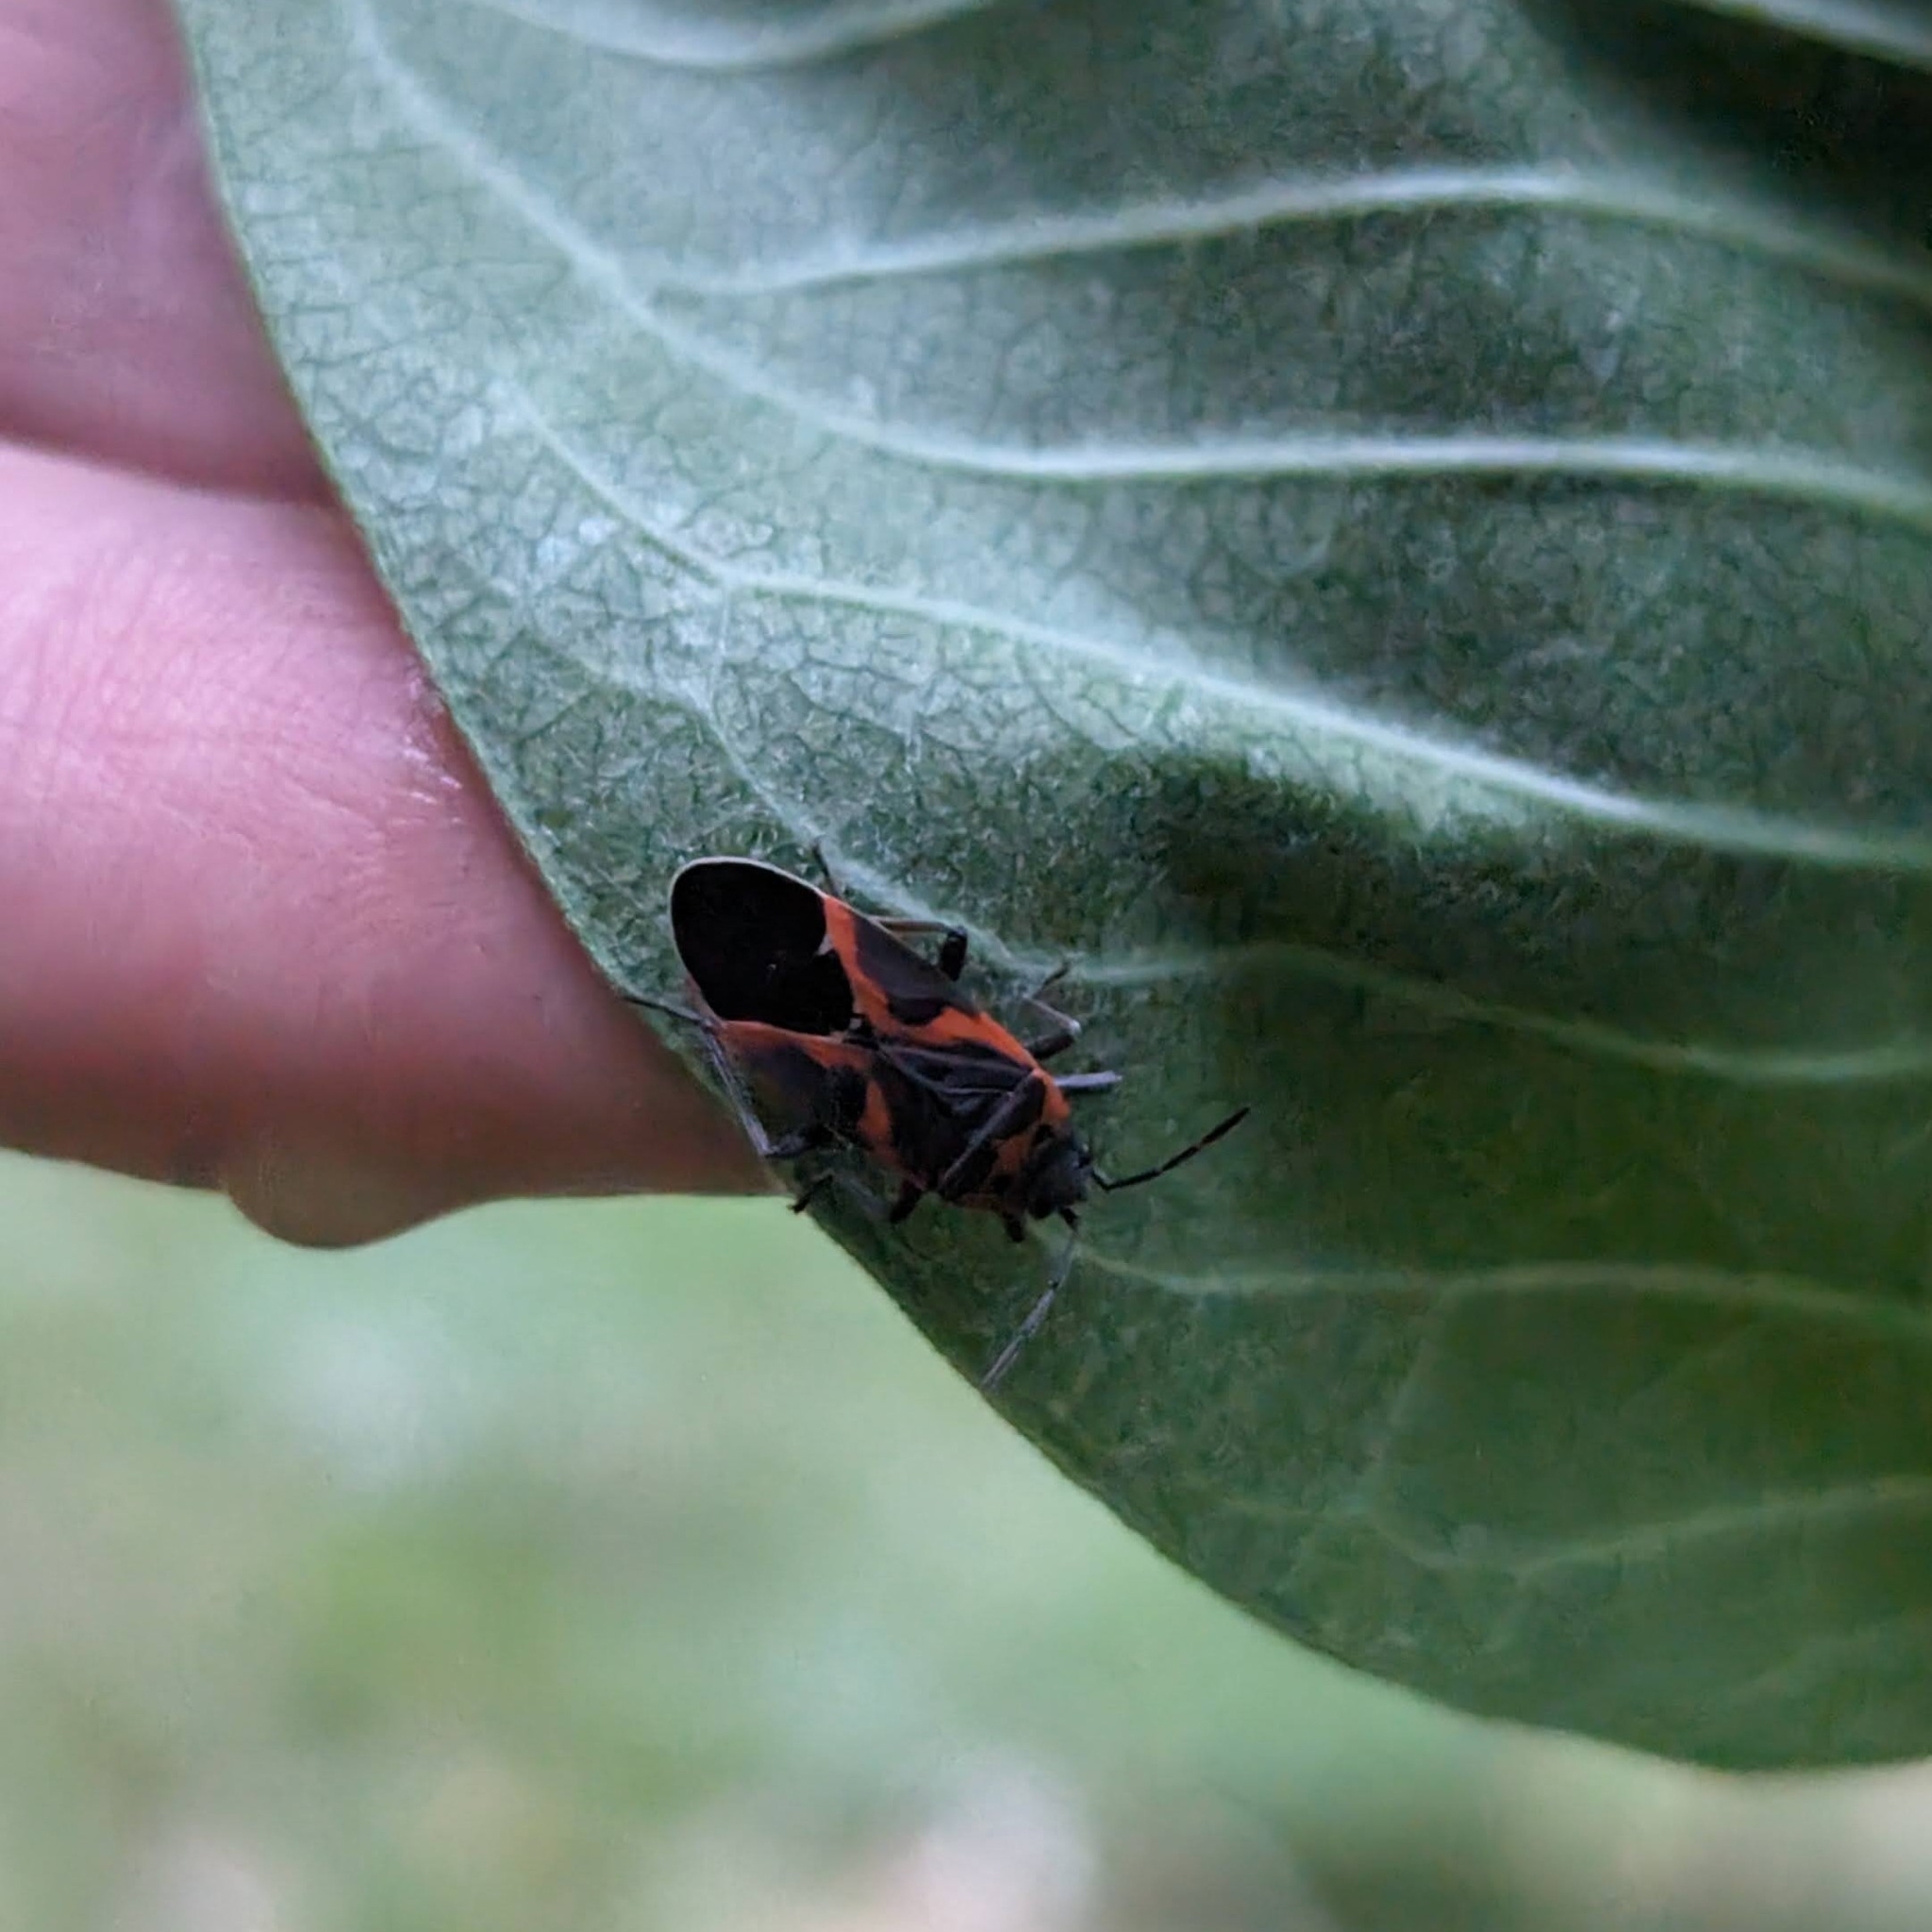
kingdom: Animalia
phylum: Arthropoda
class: Insecta
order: Hemiptera
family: Lygaeidae
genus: Lygaeus
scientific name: Lygaeus kalmii
